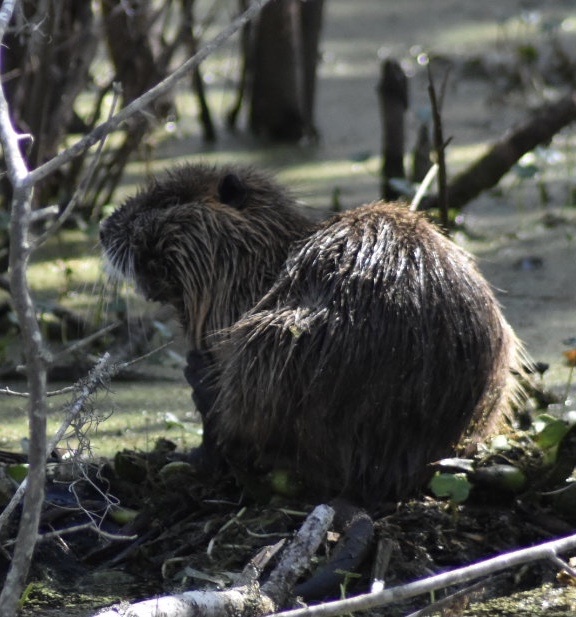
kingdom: Animalia
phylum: Chordata
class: Mammalia
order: Rodentia
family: Myocastoridae
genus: Myocastor
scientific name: Myocastor coypus
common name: Coypu
